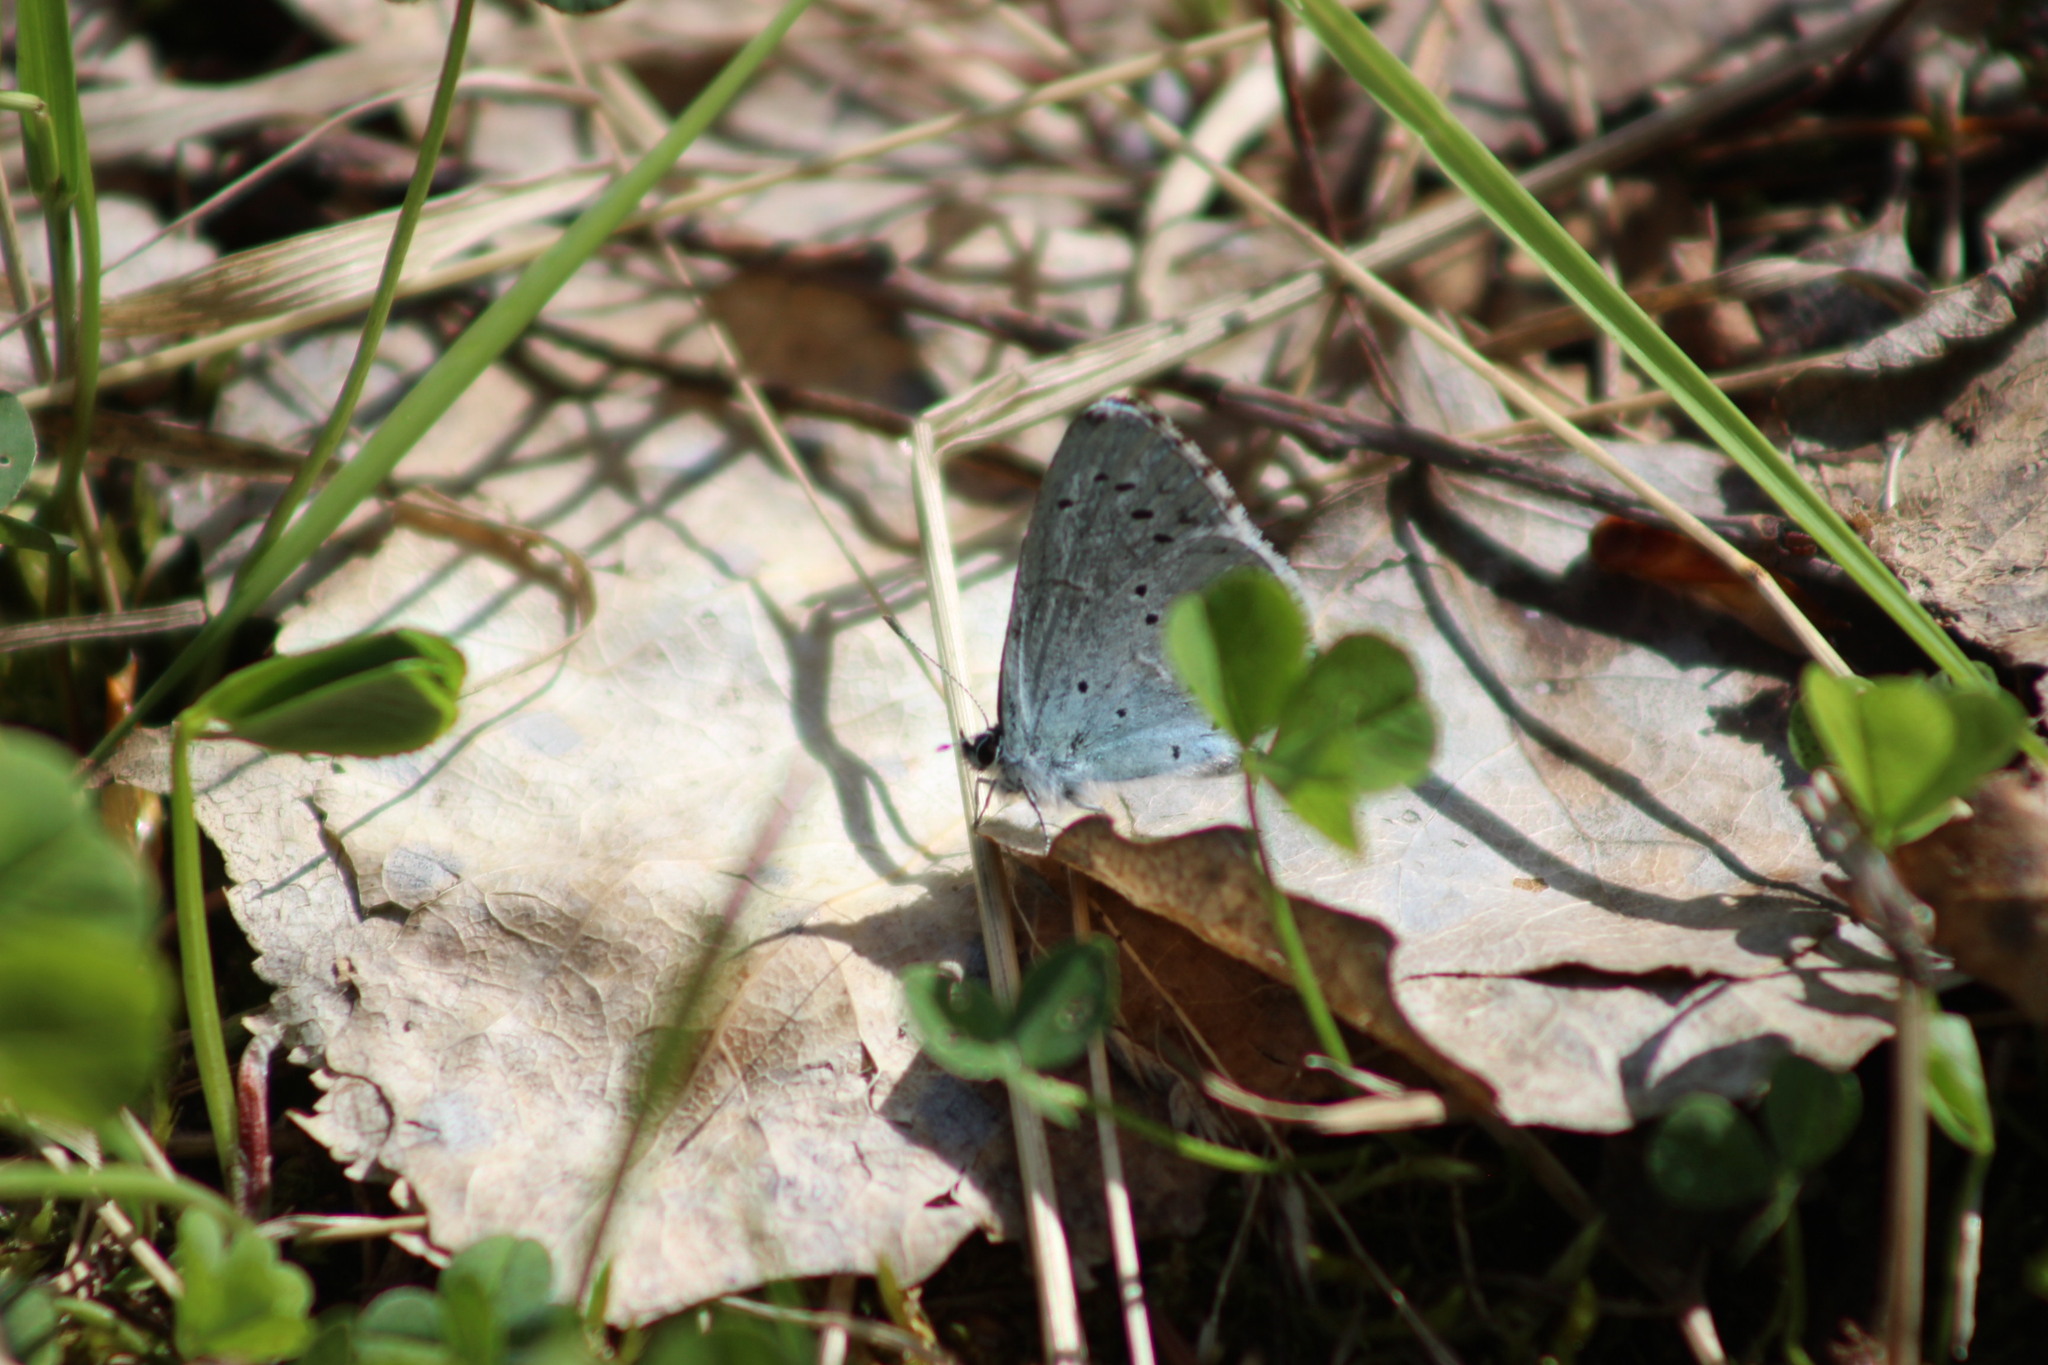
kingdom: Animalia
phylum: Arthropoda
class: Insecta
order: Lepidoptera
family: Lycaenidae
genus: Celastrina
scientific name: Celastrina argiolus
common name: Holly blue
